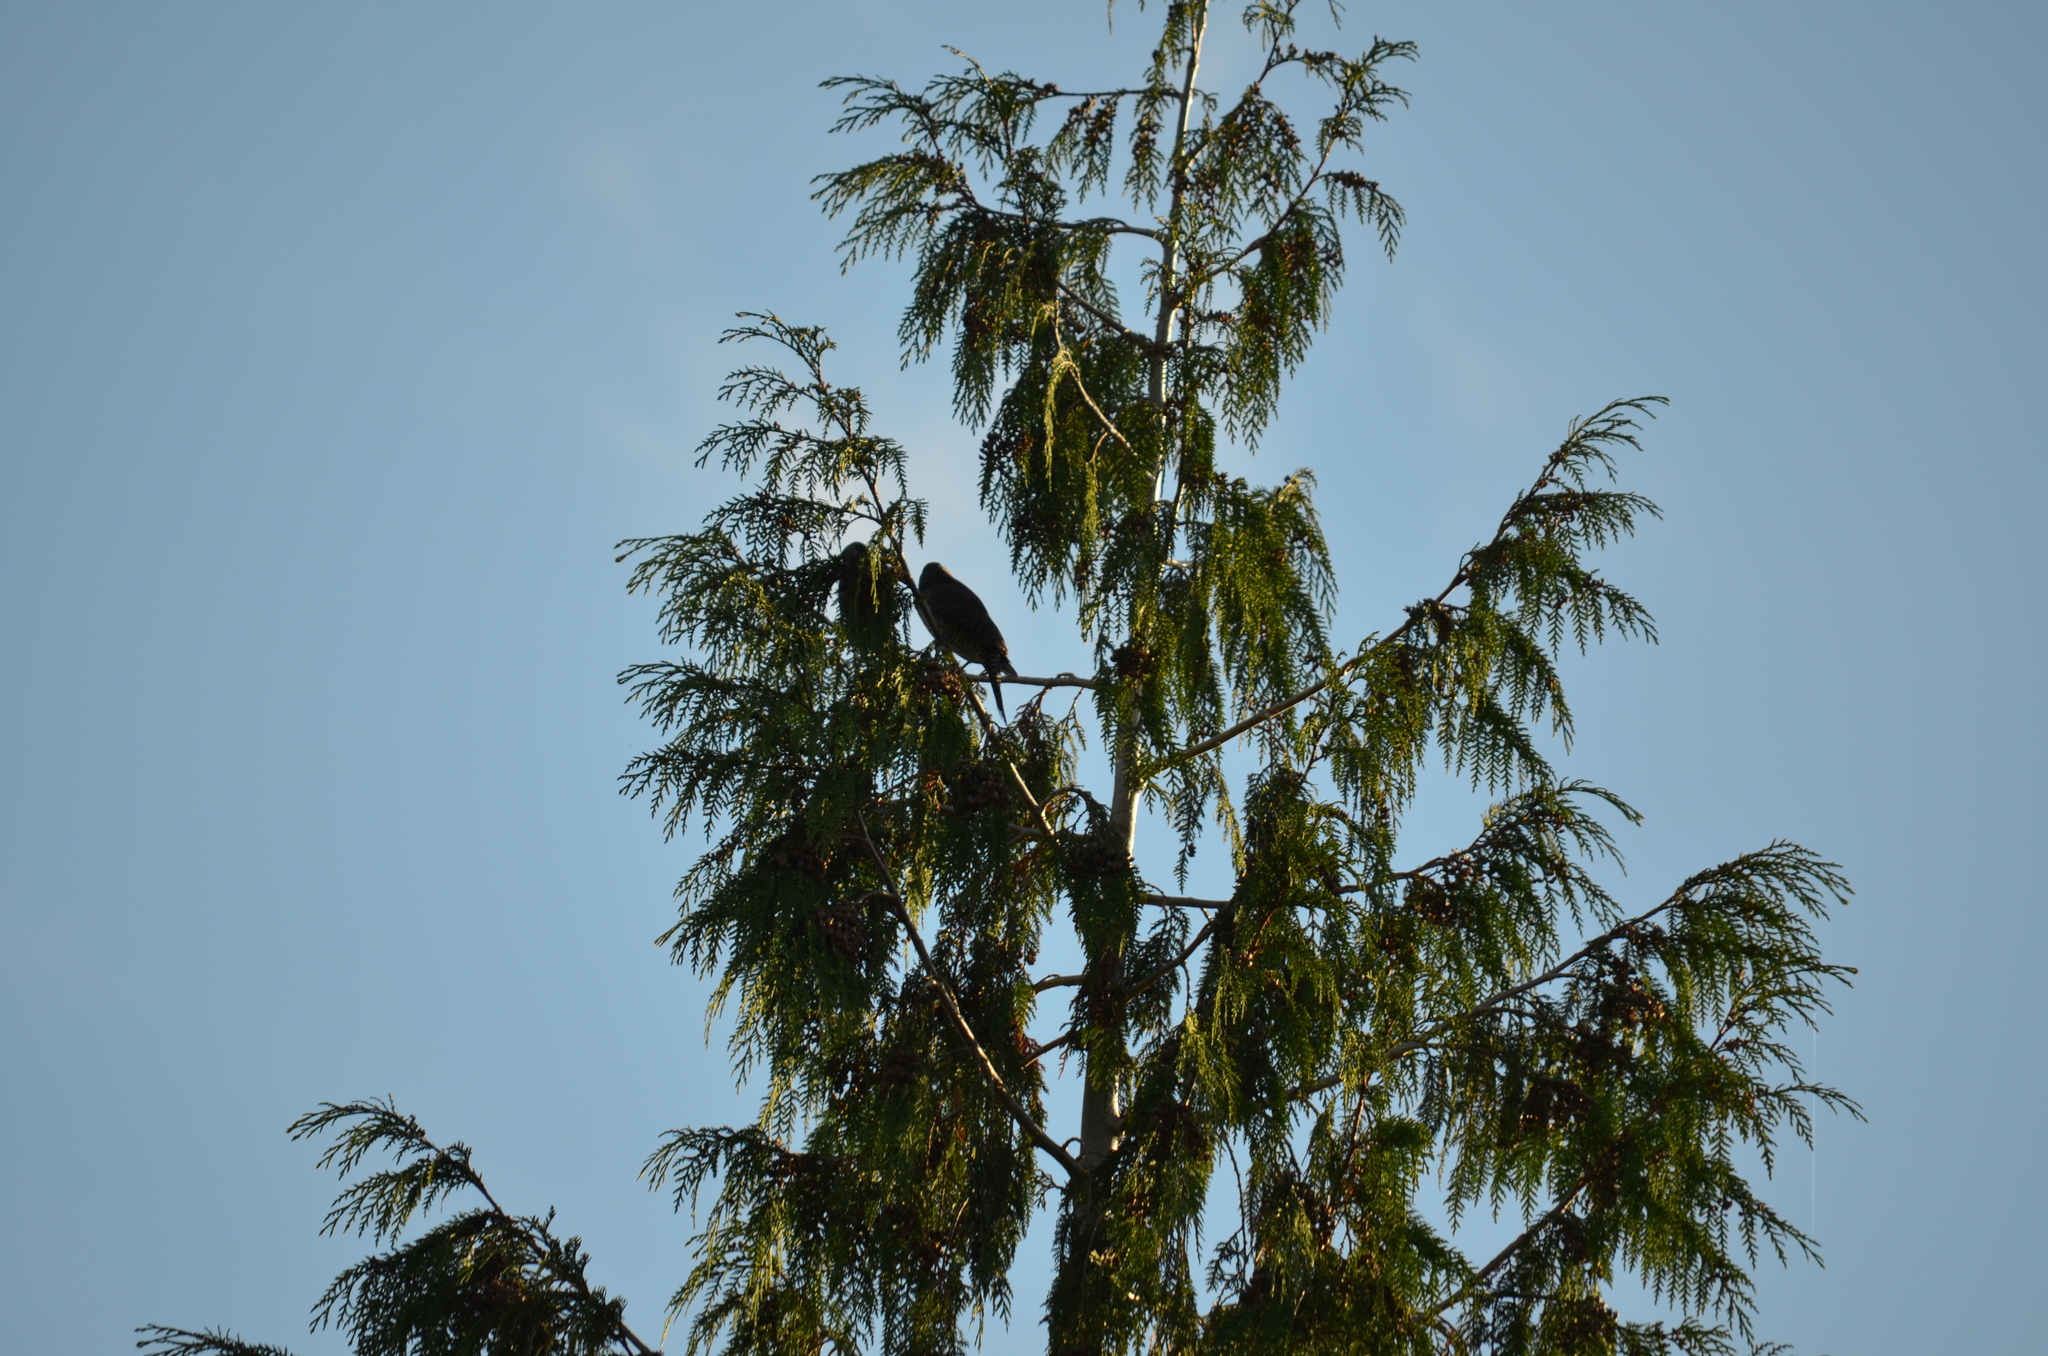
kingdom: Animalia
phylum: Chordata
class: Aves
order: Piciformes
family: Picidae
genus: Colaptes
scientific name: Colaptes auratus
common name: Northern flicker
